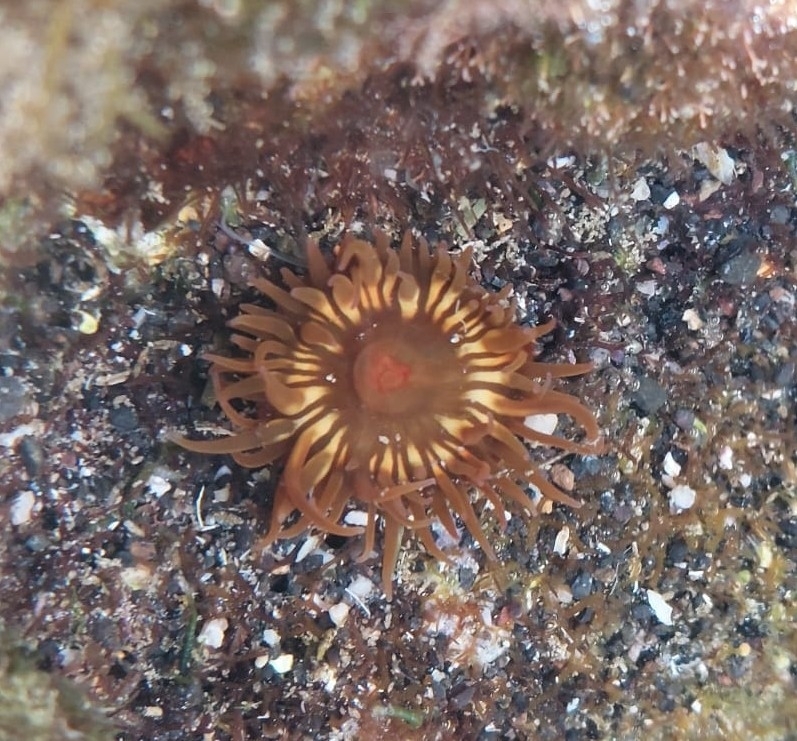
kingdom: Animalia
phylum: Cnidaria
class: Anthozoa
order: Actiniaria
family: Actiniidae
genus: Anemonia
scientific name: Anemonia sargassensis
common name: Sargassum anemone
